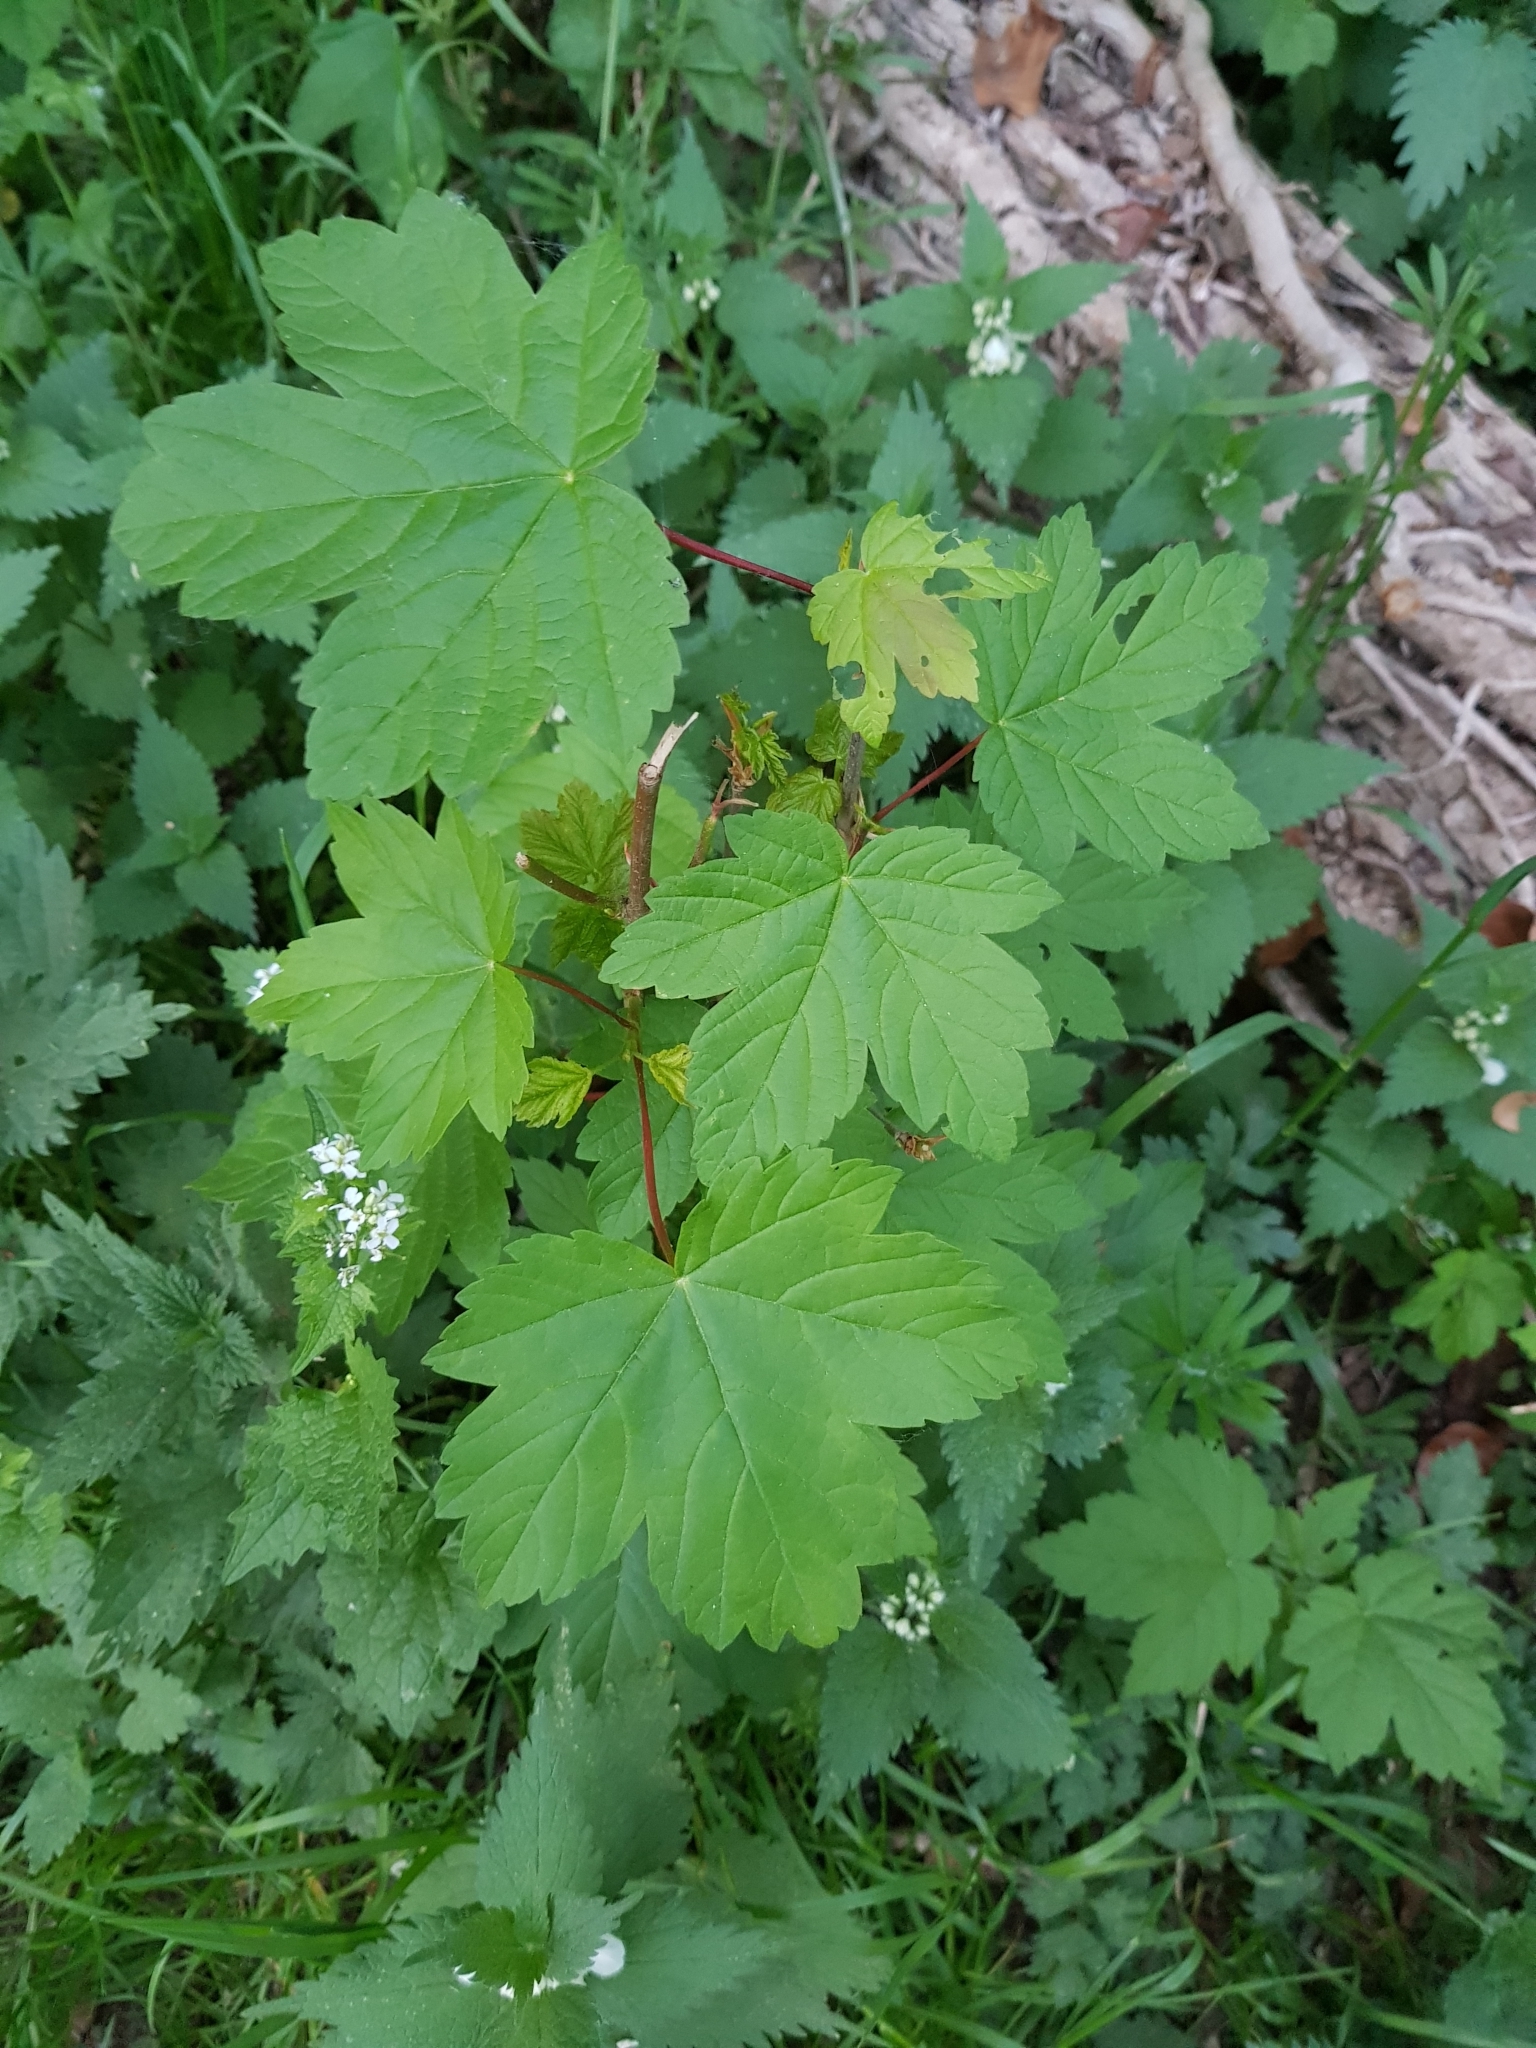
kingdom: Plantae
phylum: Tracheophyta
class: Magnoliopsida
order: Sapindales
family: Sapindaceae
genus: Acer
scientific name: Acer pseudoplatanus
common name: Sycamore
